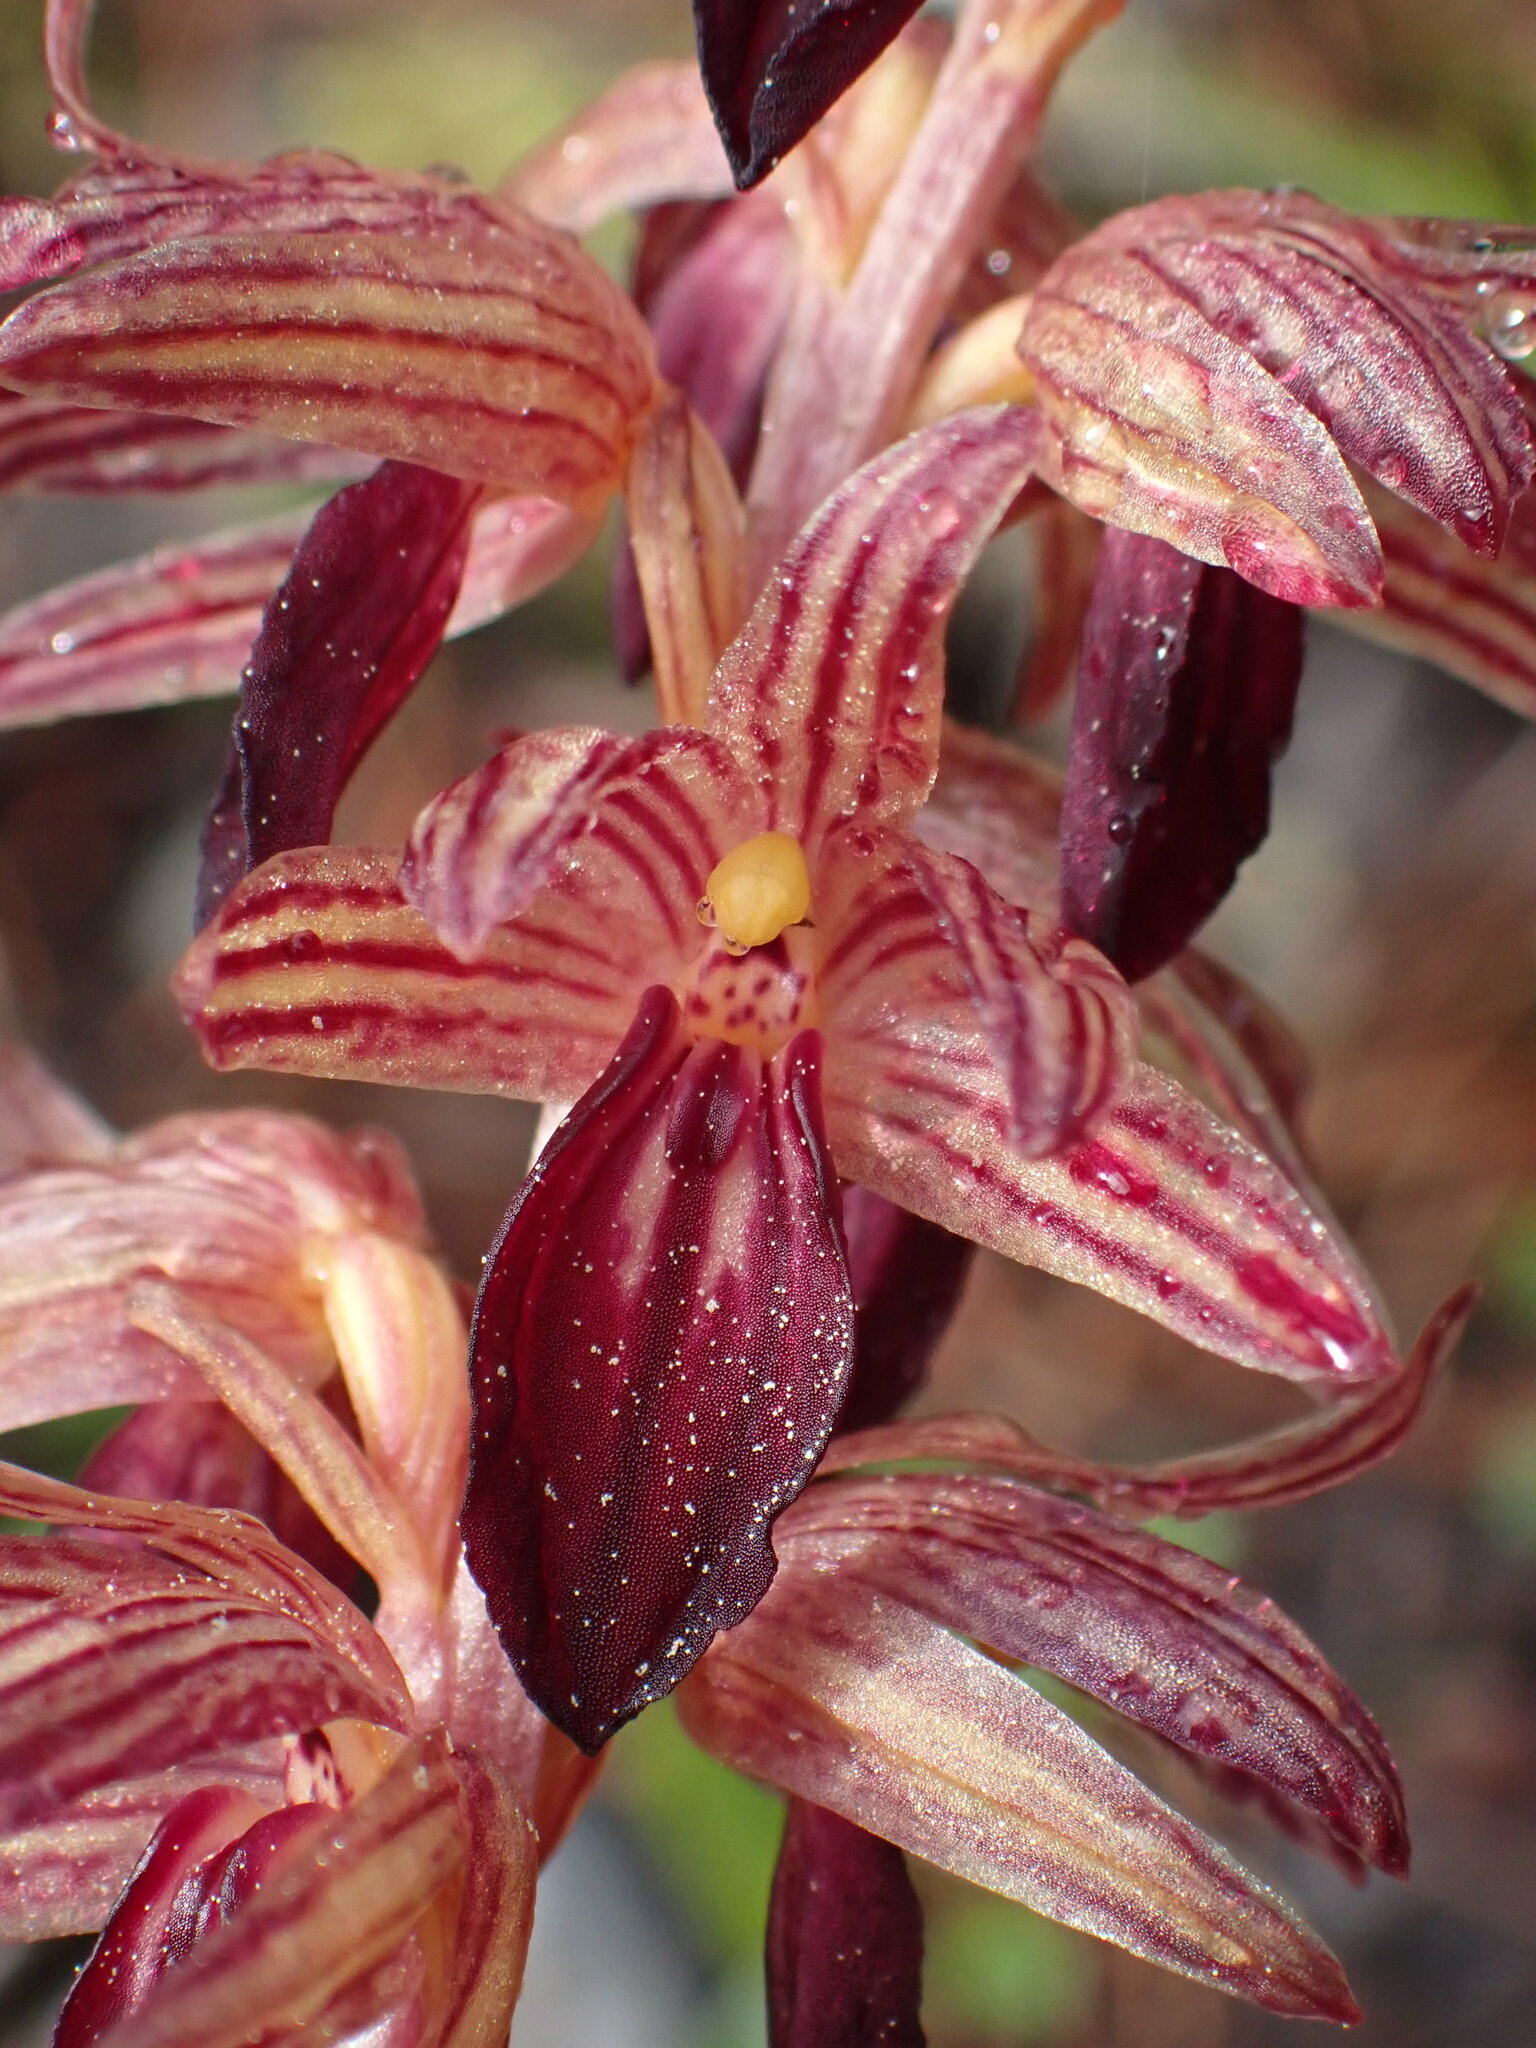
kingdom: Plantae
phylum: Tracheophyta
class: Liliopsida
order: Asparagales
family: Orchidaceae
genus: Corallorhiza
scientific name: Corallorhiza striata
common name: Hooded coralroot
